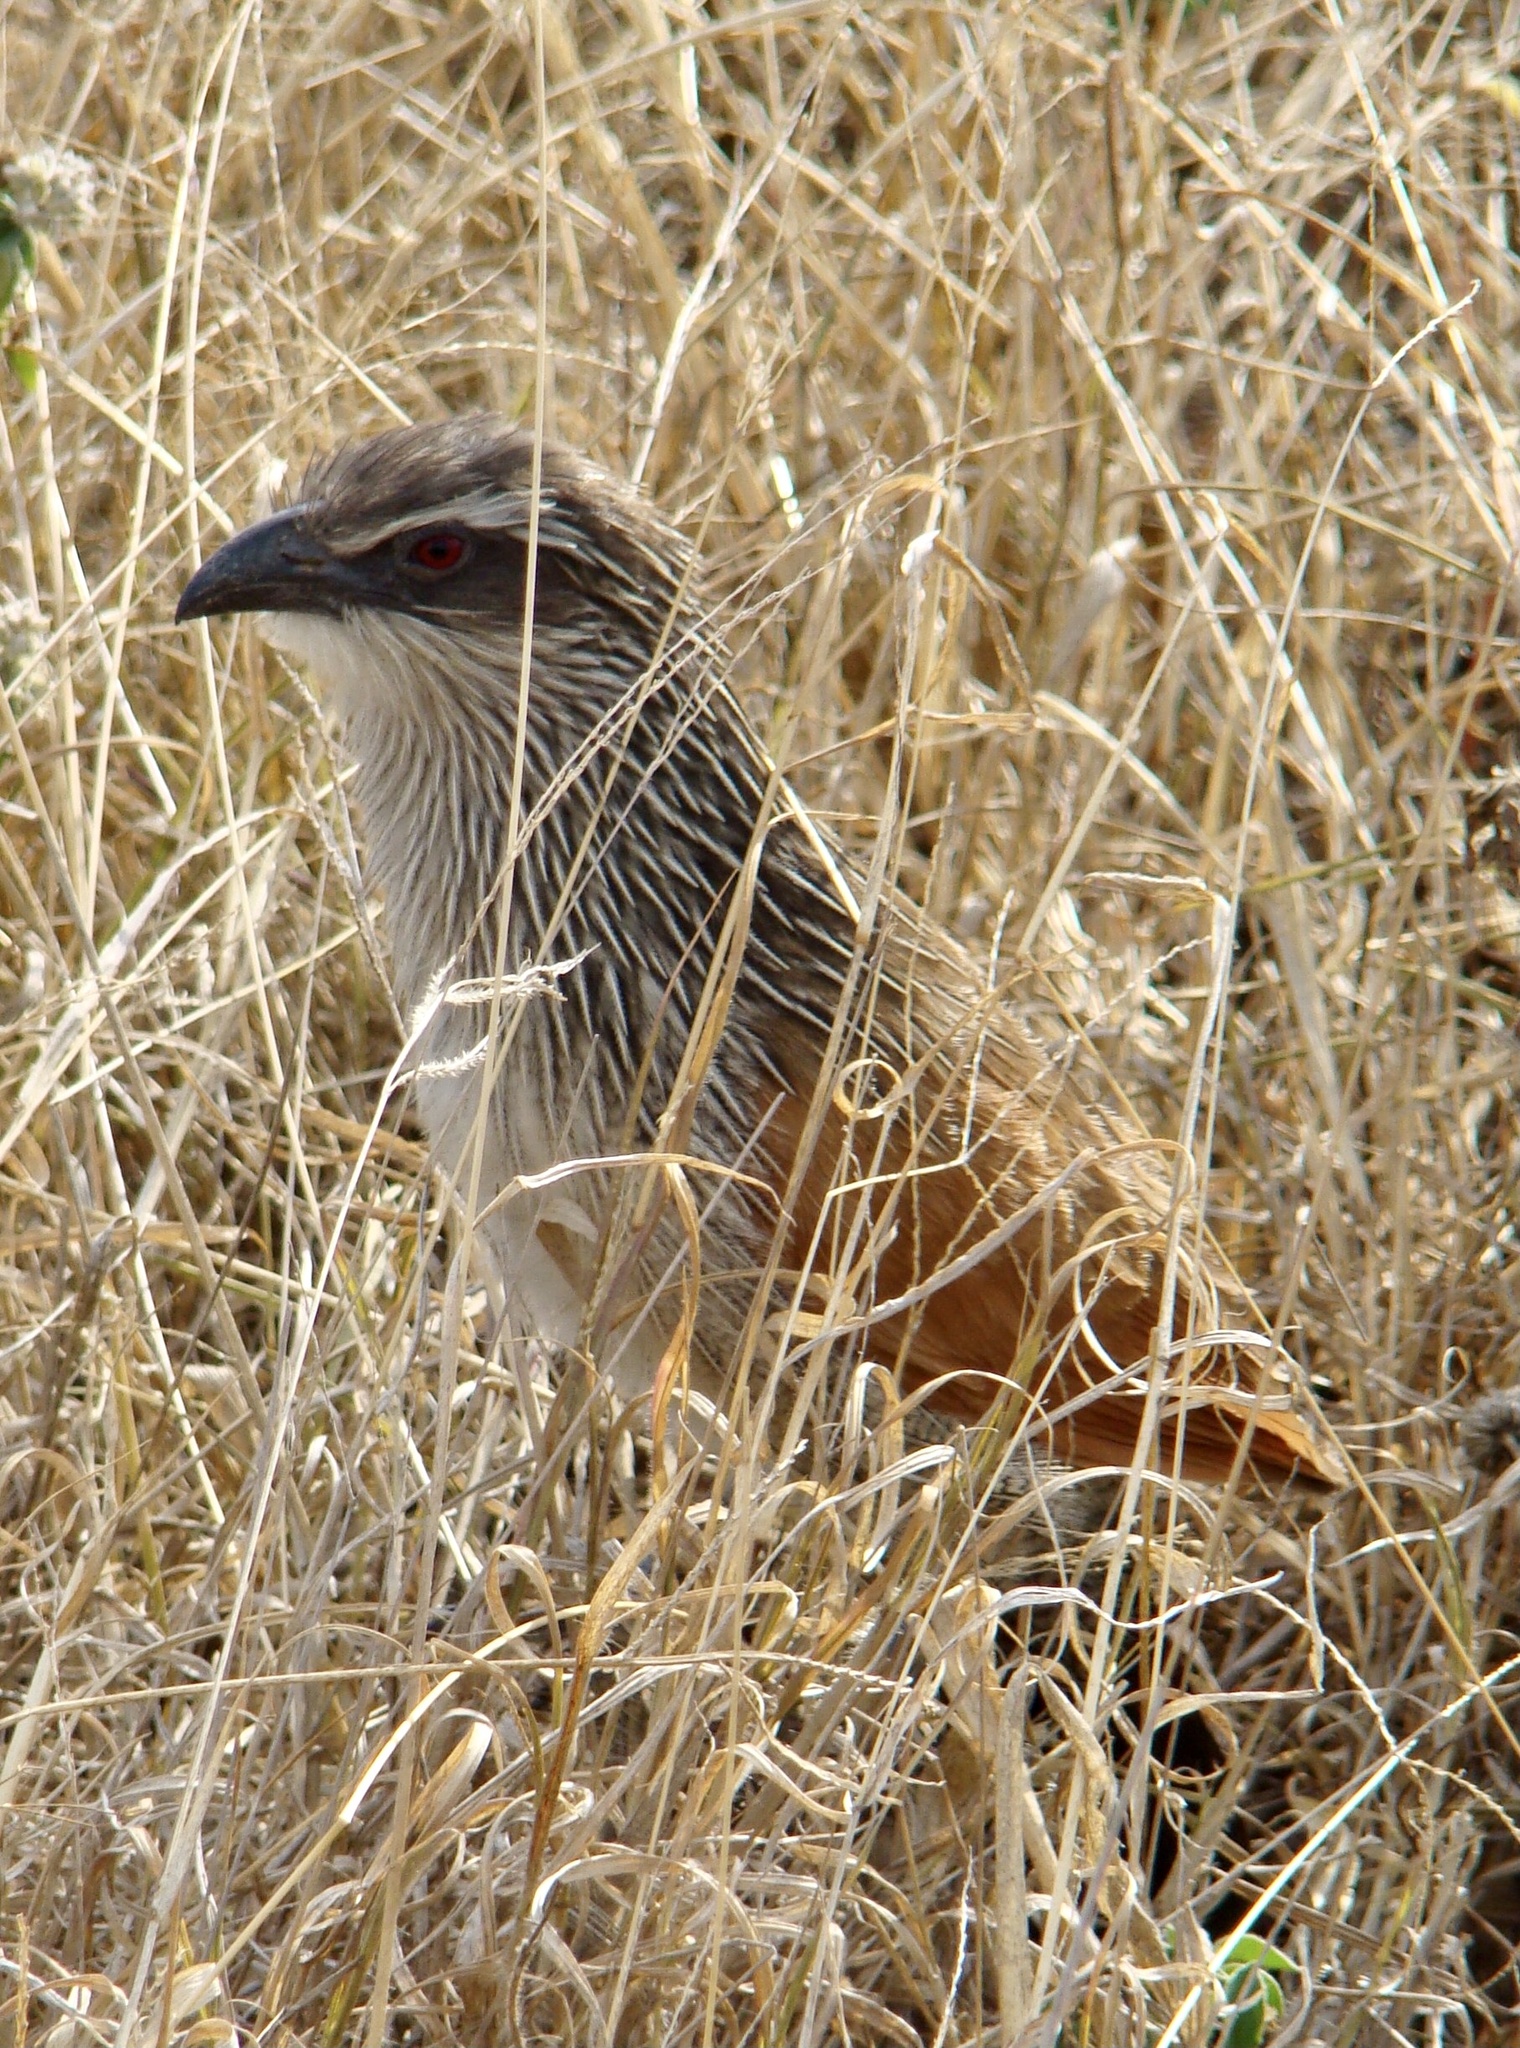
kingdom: Animalia
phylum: Chordata
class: Aves
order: Cuculiformes
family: Cuculidae
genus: Centropus
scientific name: Centropus superciliosus
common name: White-browed coucal
